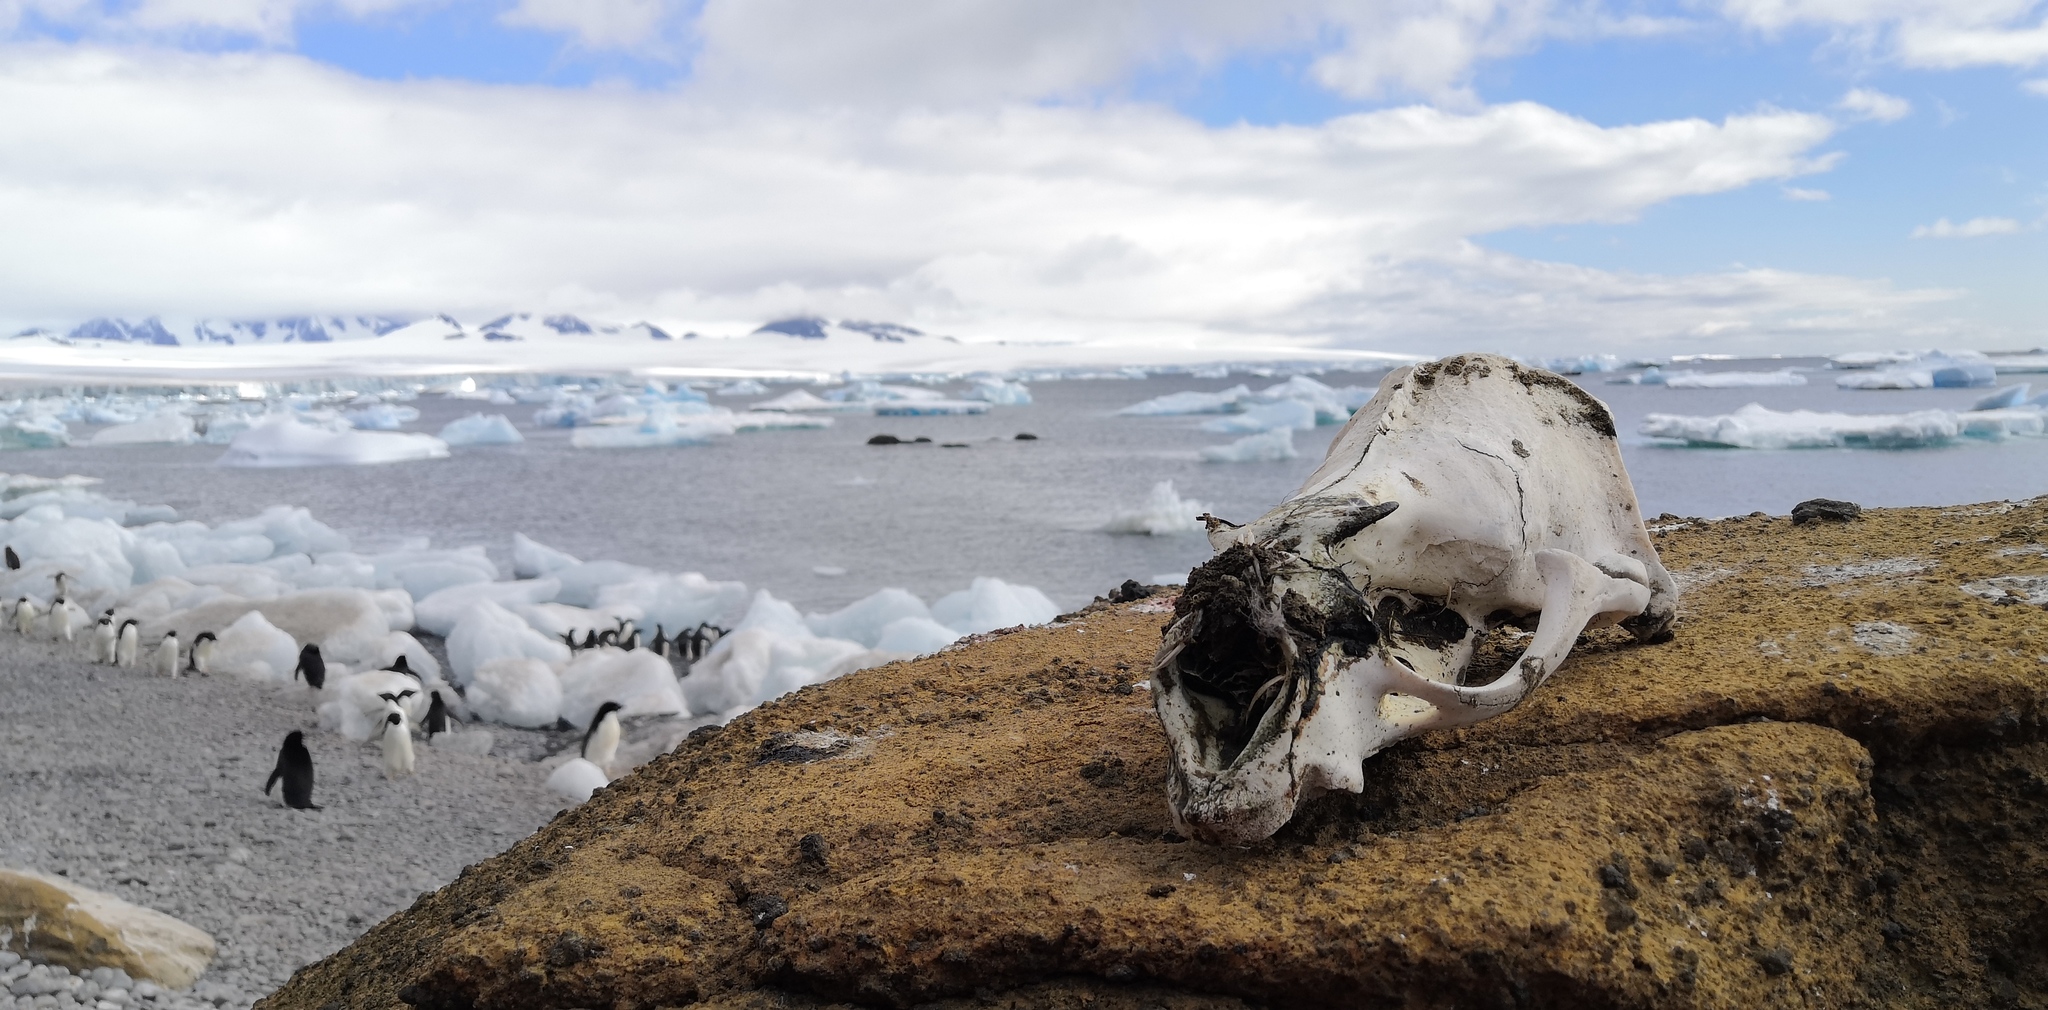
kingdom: Animalia
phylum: Chordata
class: Mammalia
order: Carnivora
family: Otariidae
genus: Arctocephalus
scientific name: Arctocephalus gazella
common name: Antarctic fur seal
